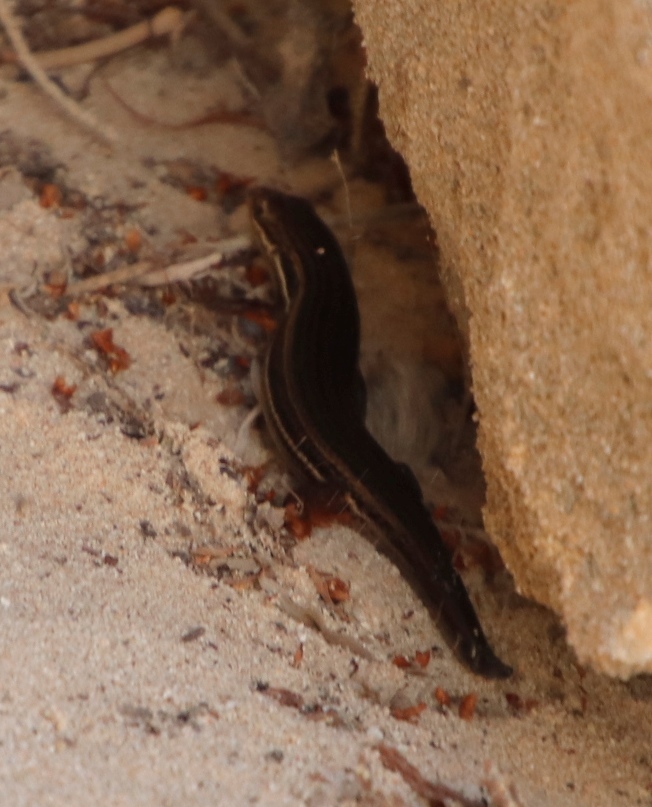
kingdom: Animalia
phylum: Chordata
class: Squamata
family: Scincidae
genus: Trachylepis
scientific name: Trachylepis homalocephala
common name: Red-sided skink
